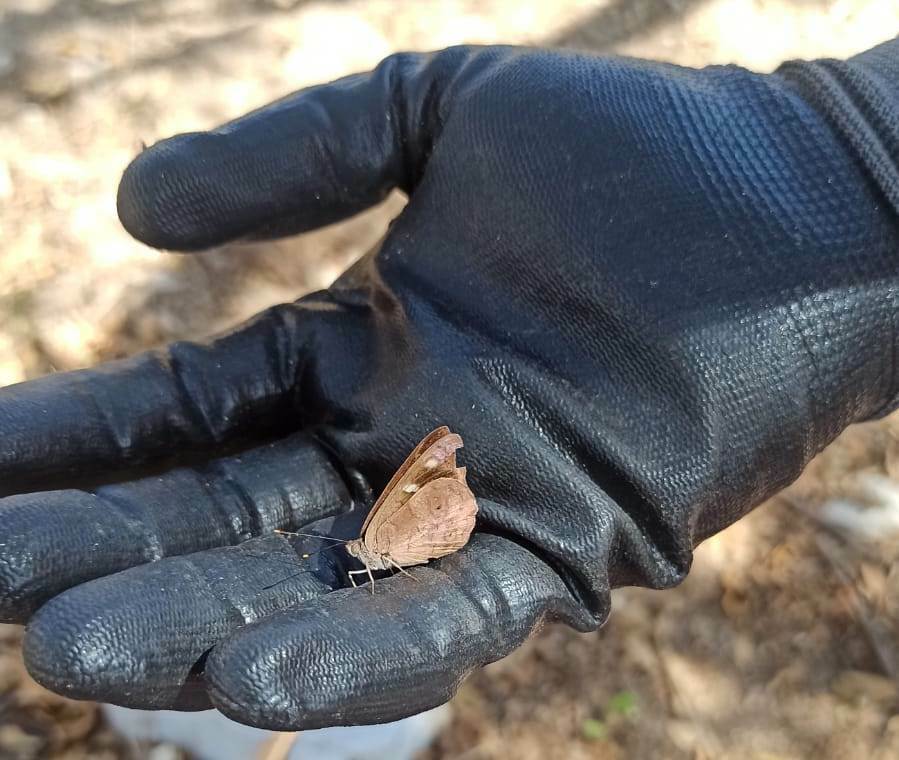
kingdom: Animalia
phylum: Arthropoda
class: Insecta
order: Lepidoptera
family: Nymphalidae
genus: Eunica
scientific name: Eunica monima
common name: Dingy purplewing
